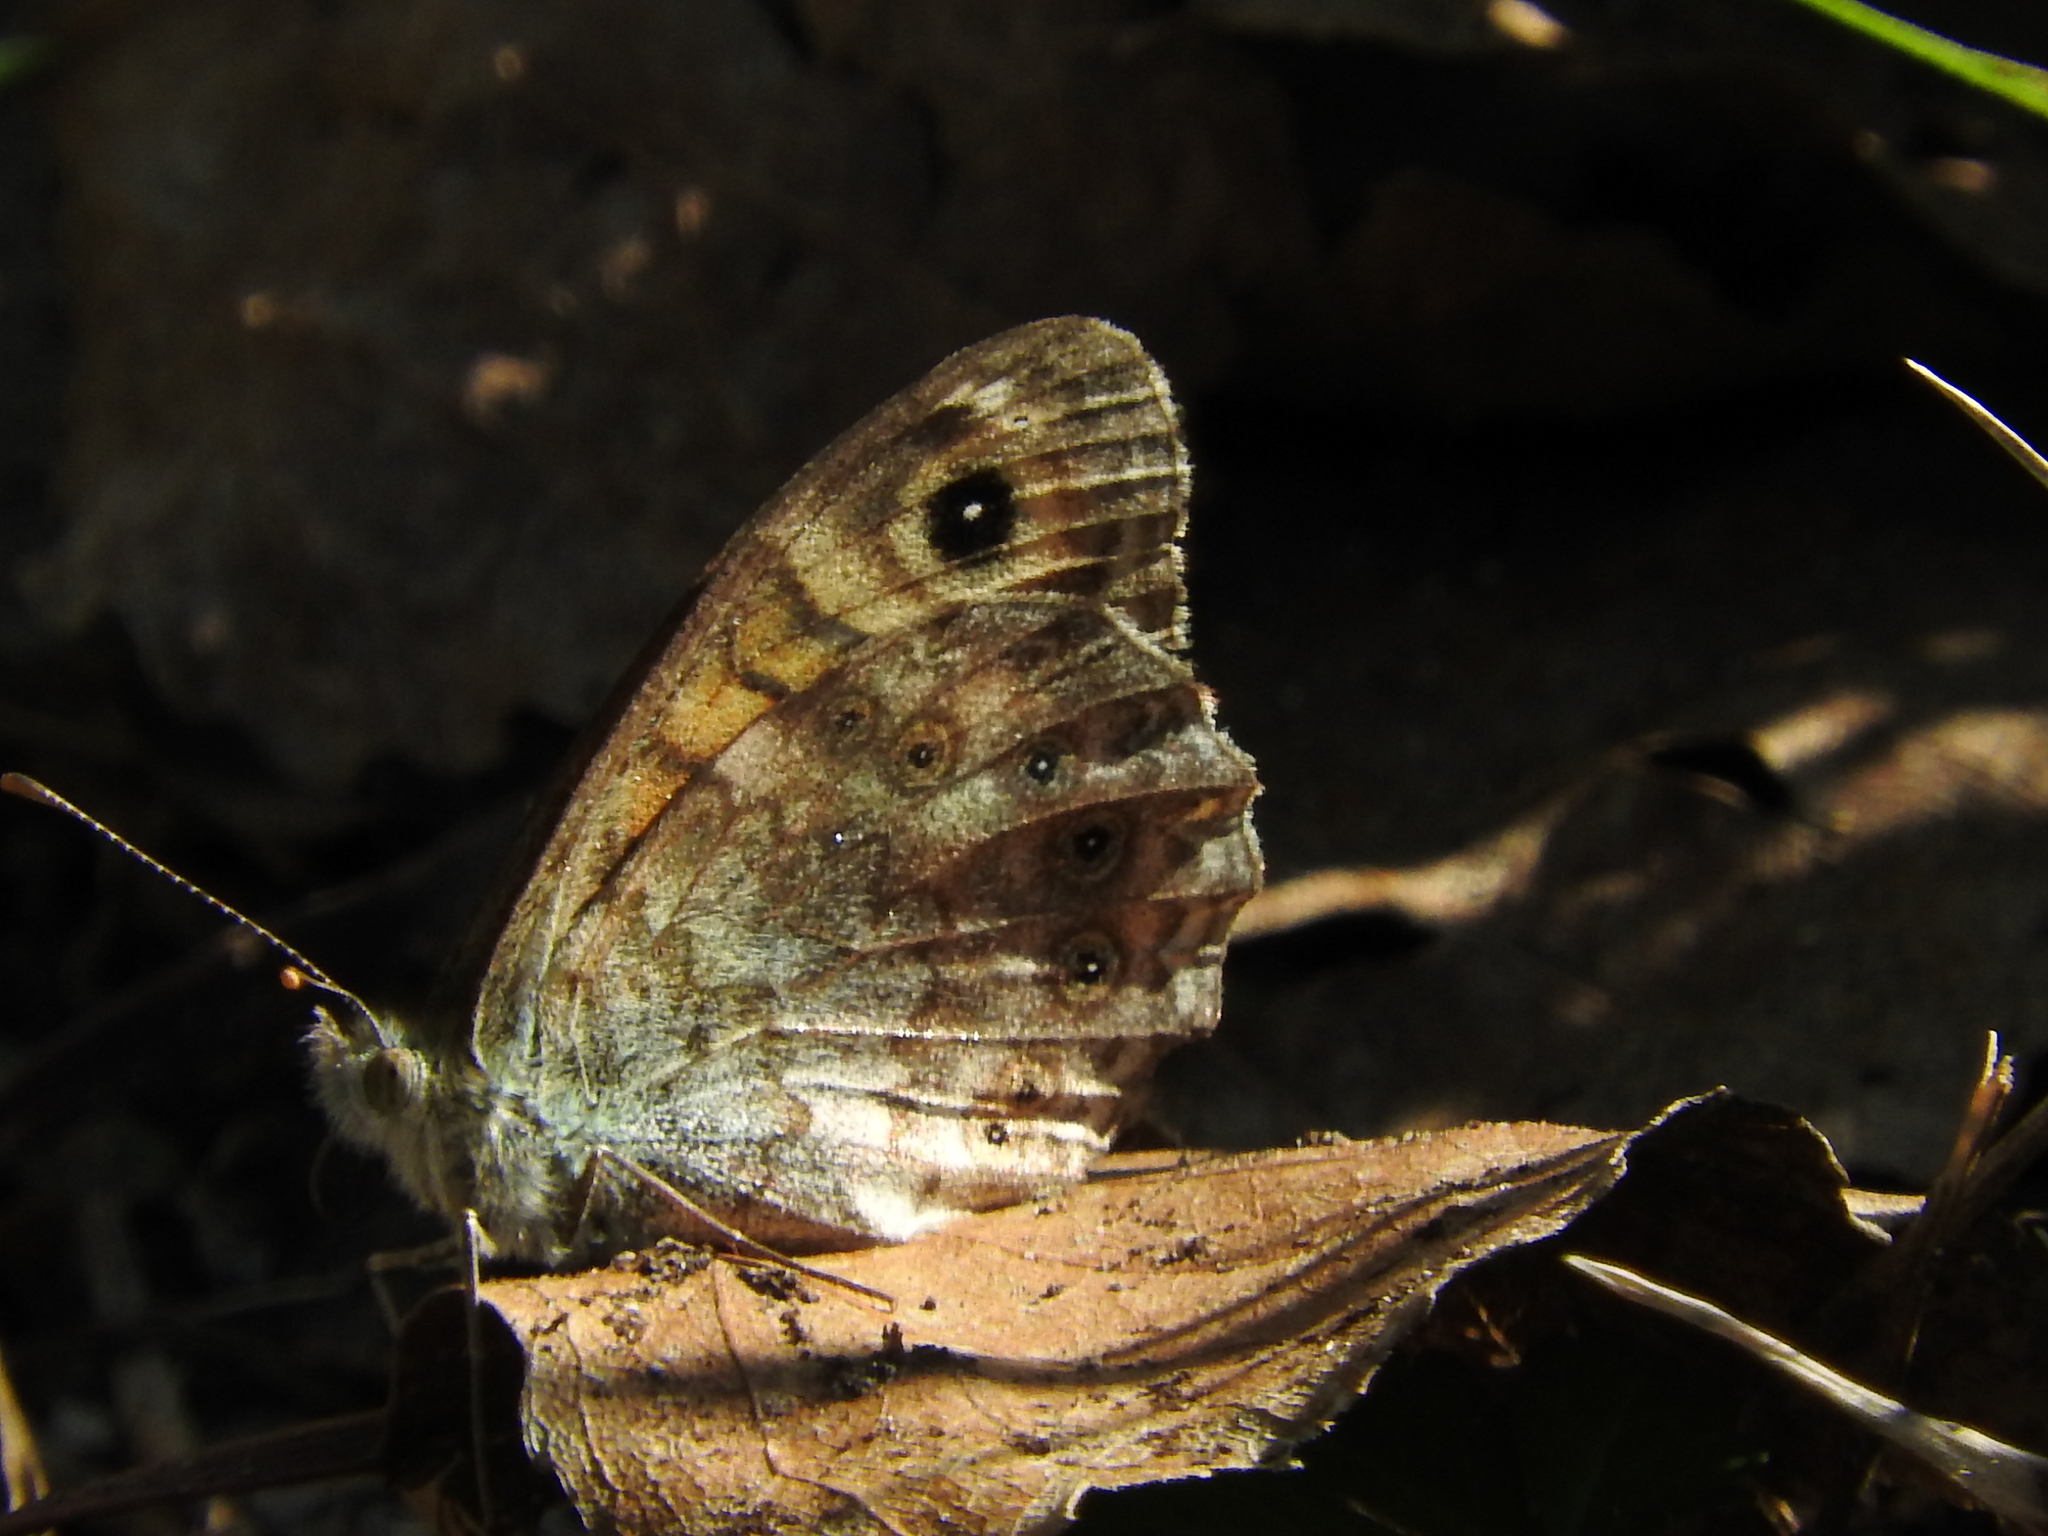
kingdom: Animalia
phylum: Arthropoda
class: Insecta
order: Lepidoptera
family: Nymphalidae
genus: Pararge
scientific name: Pararge Lasiommata megera
